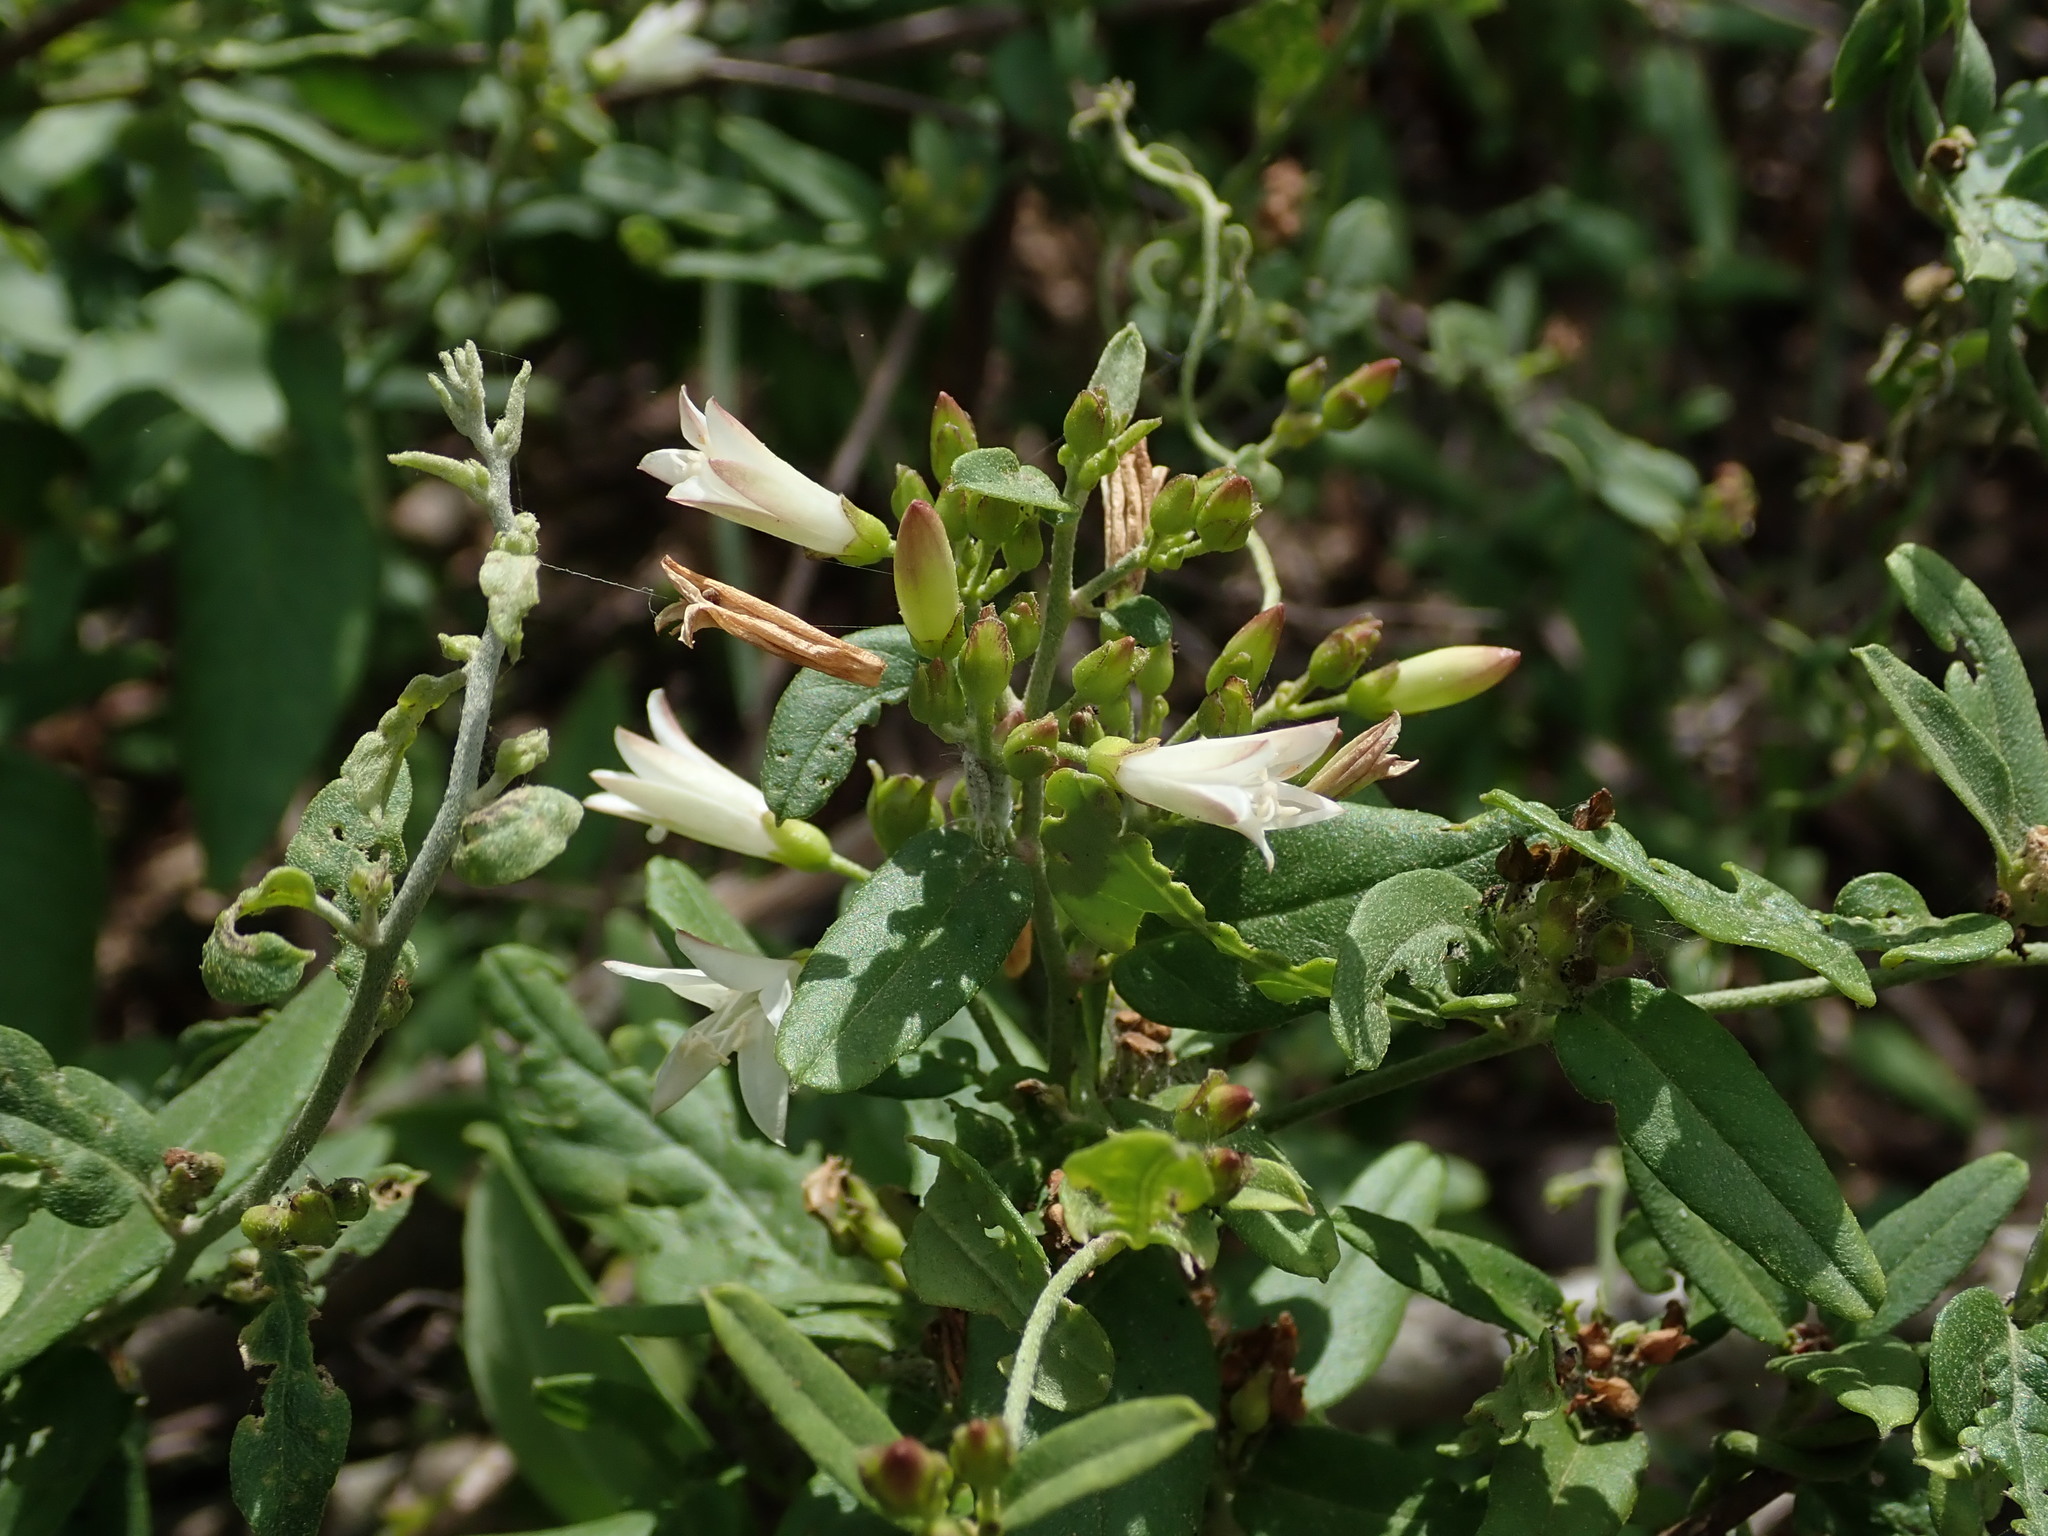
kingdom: Plantae
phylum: Tracheophyta
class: Magnoliopsida
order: Solanales
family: Convolvulaceae
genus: Jacquemontia
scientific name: Jacquemontia havanensis
